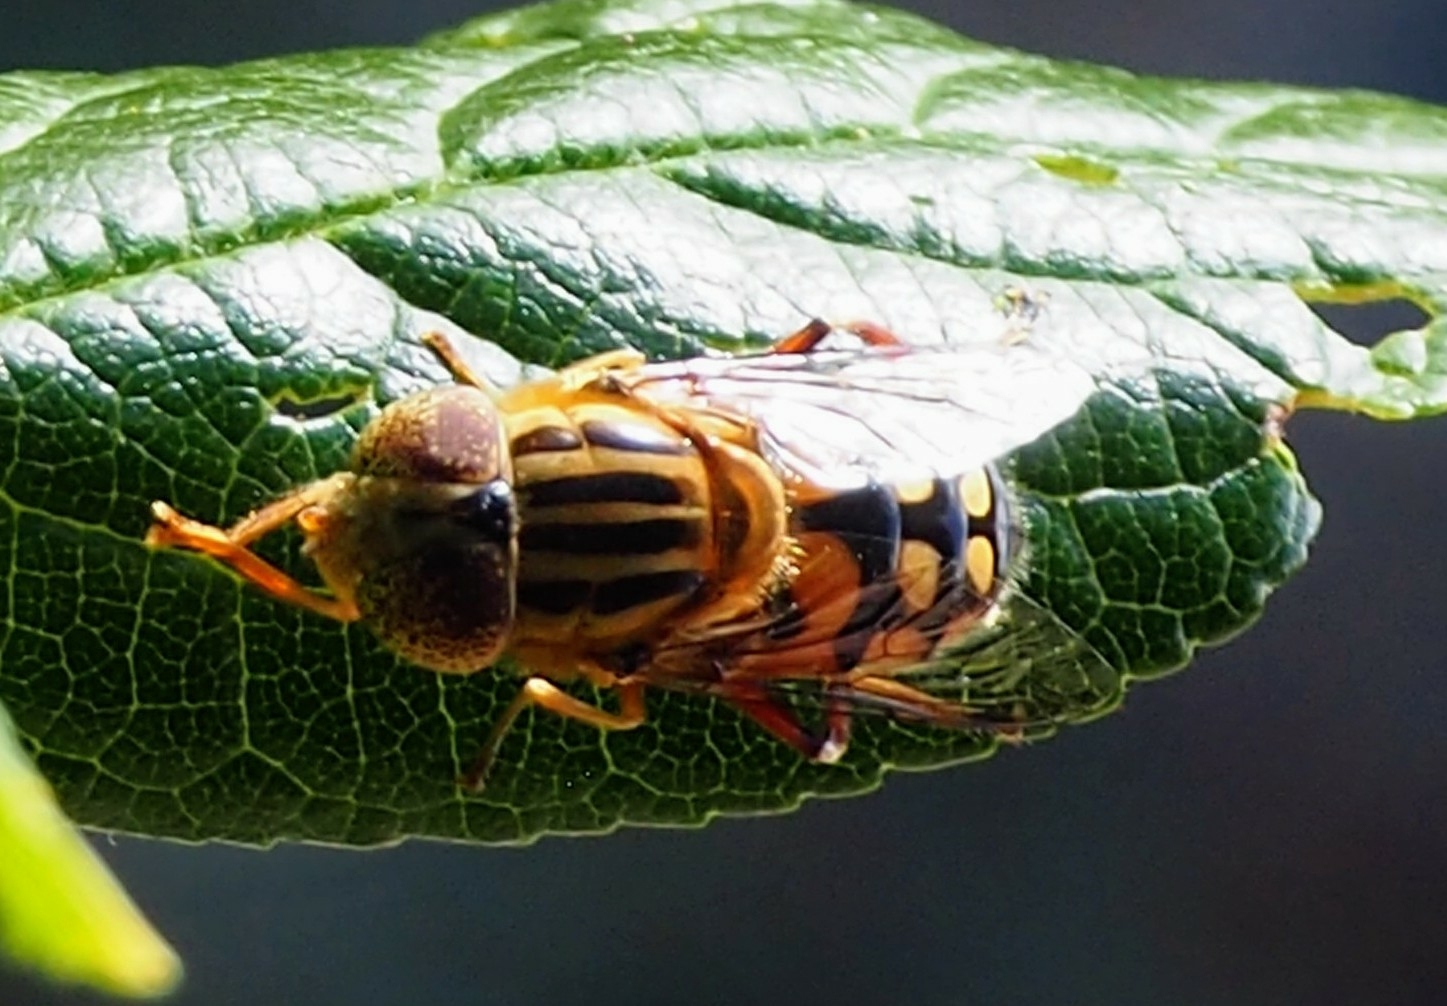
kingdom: Animalia
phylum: Arthropoda
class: Insecta
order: Diptera
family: Syrphidae
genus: Eristalinus
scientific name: Eristalinus punctulatus
